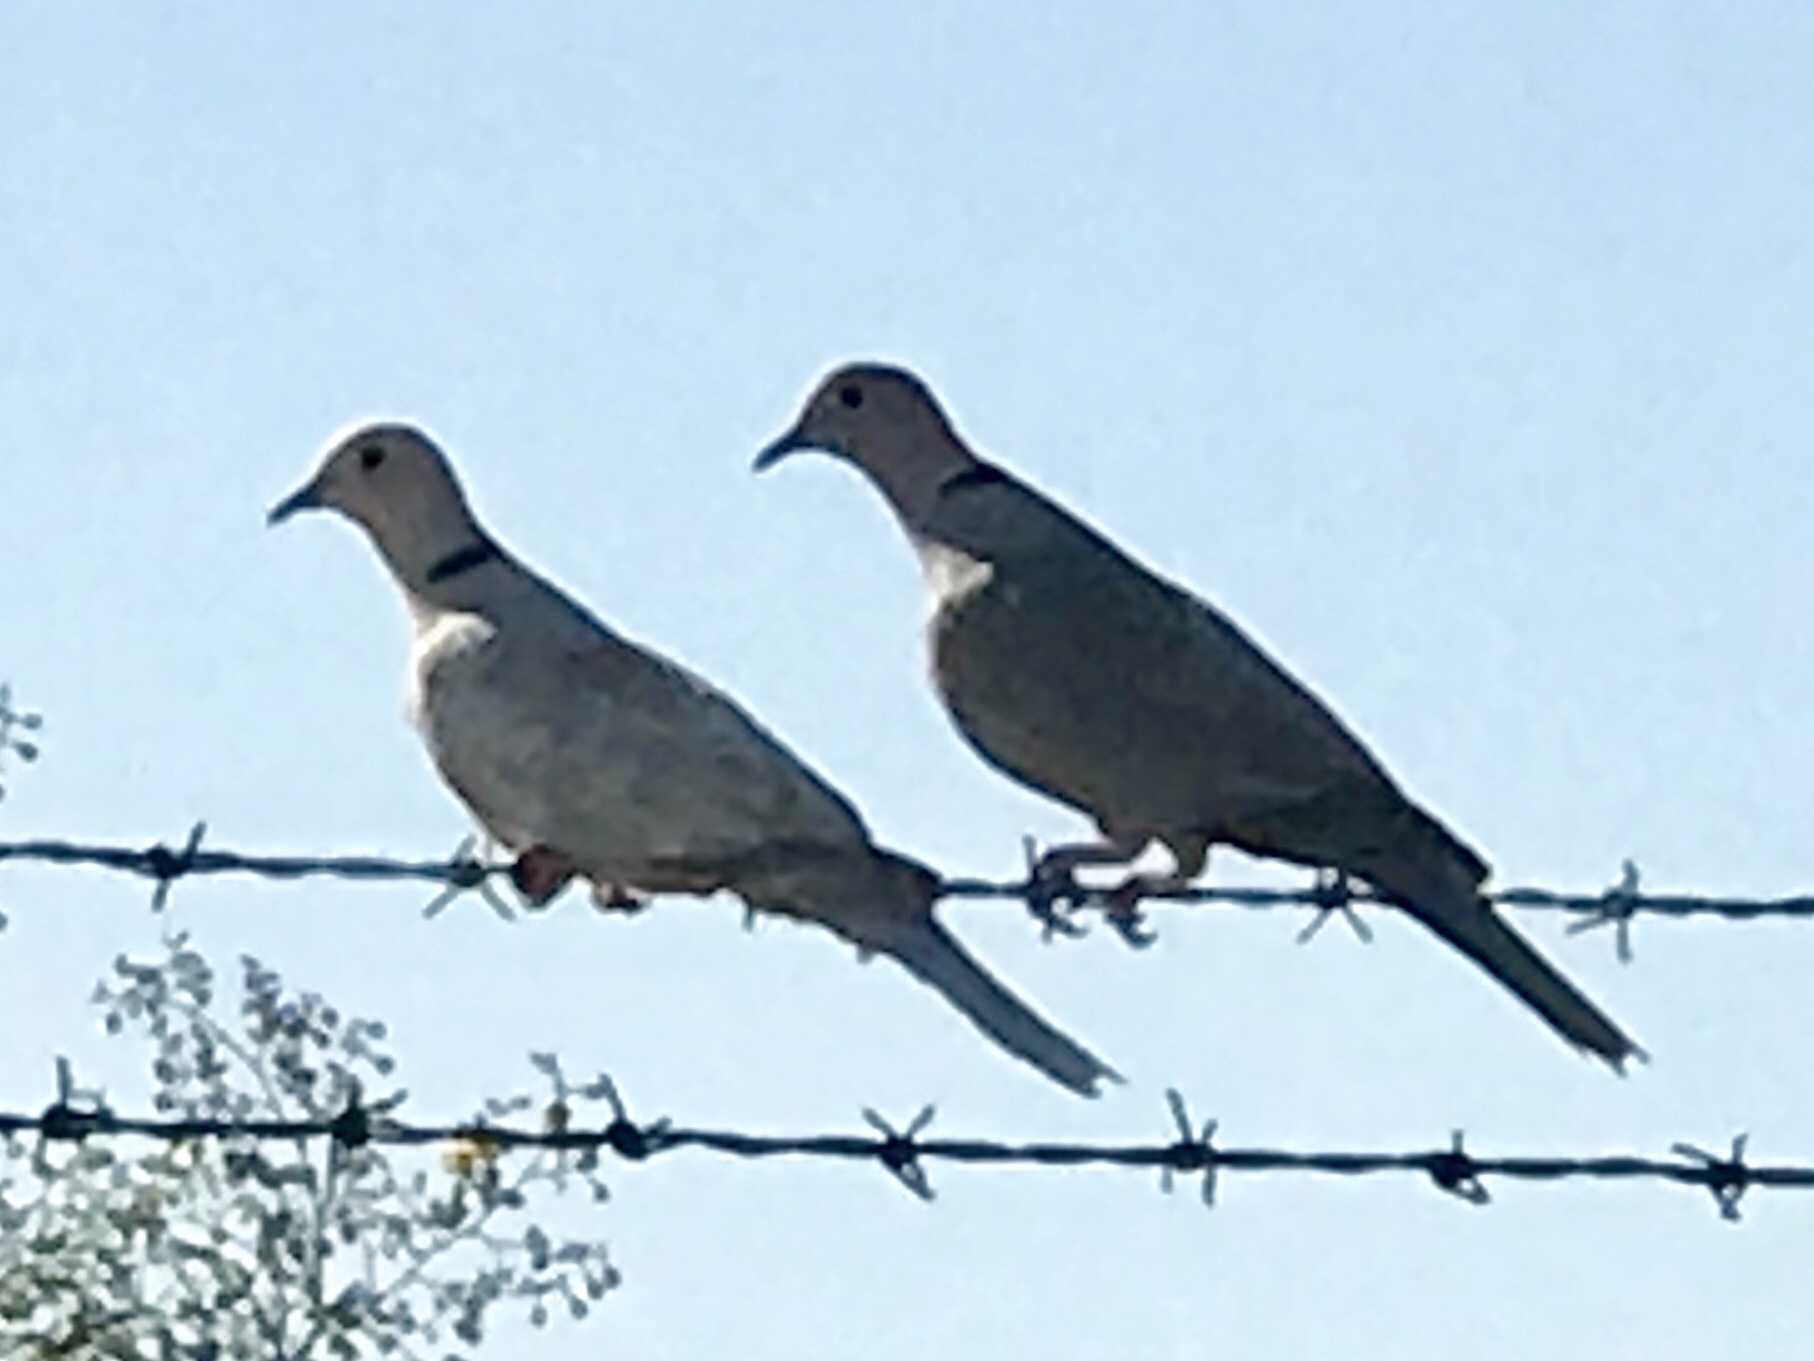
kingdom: Animalia
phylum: Chordata
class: Aves
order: Columbiformes
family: Columbidae
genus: Streptopelia
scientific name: Streptopelia decaocto
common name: Eurasian collared dove
